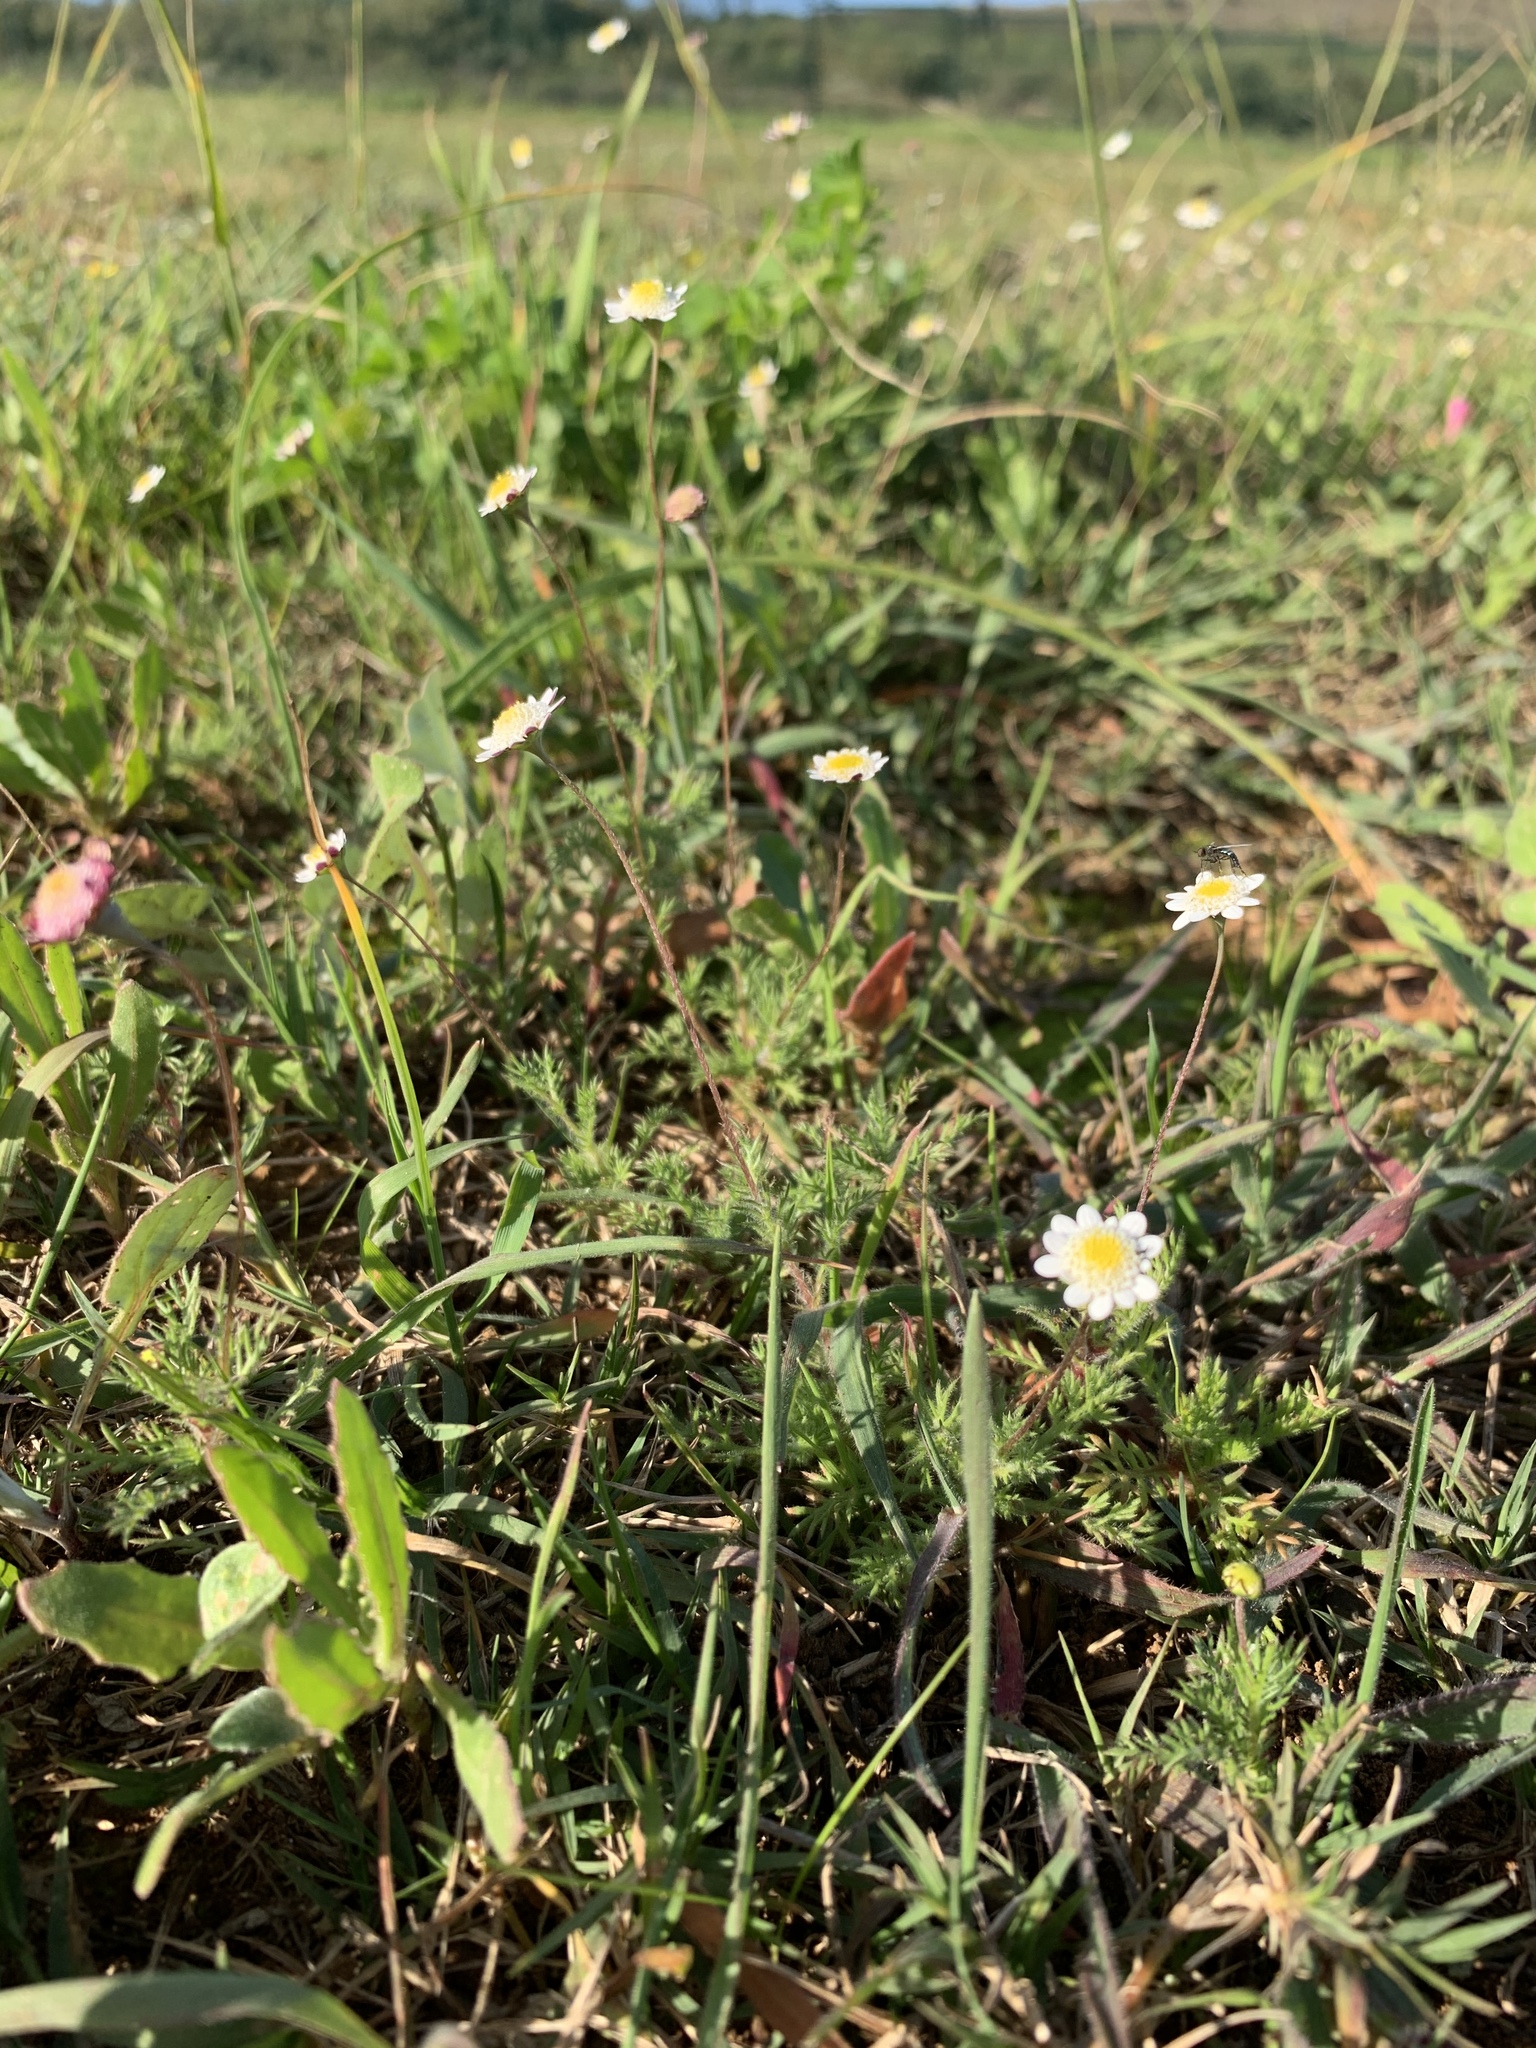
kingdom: Plantae
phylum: Tracheophyta
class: Magnoliopsida
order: Asterales
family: Asteraceae
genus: Cotula
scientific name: Cotula turbinata
